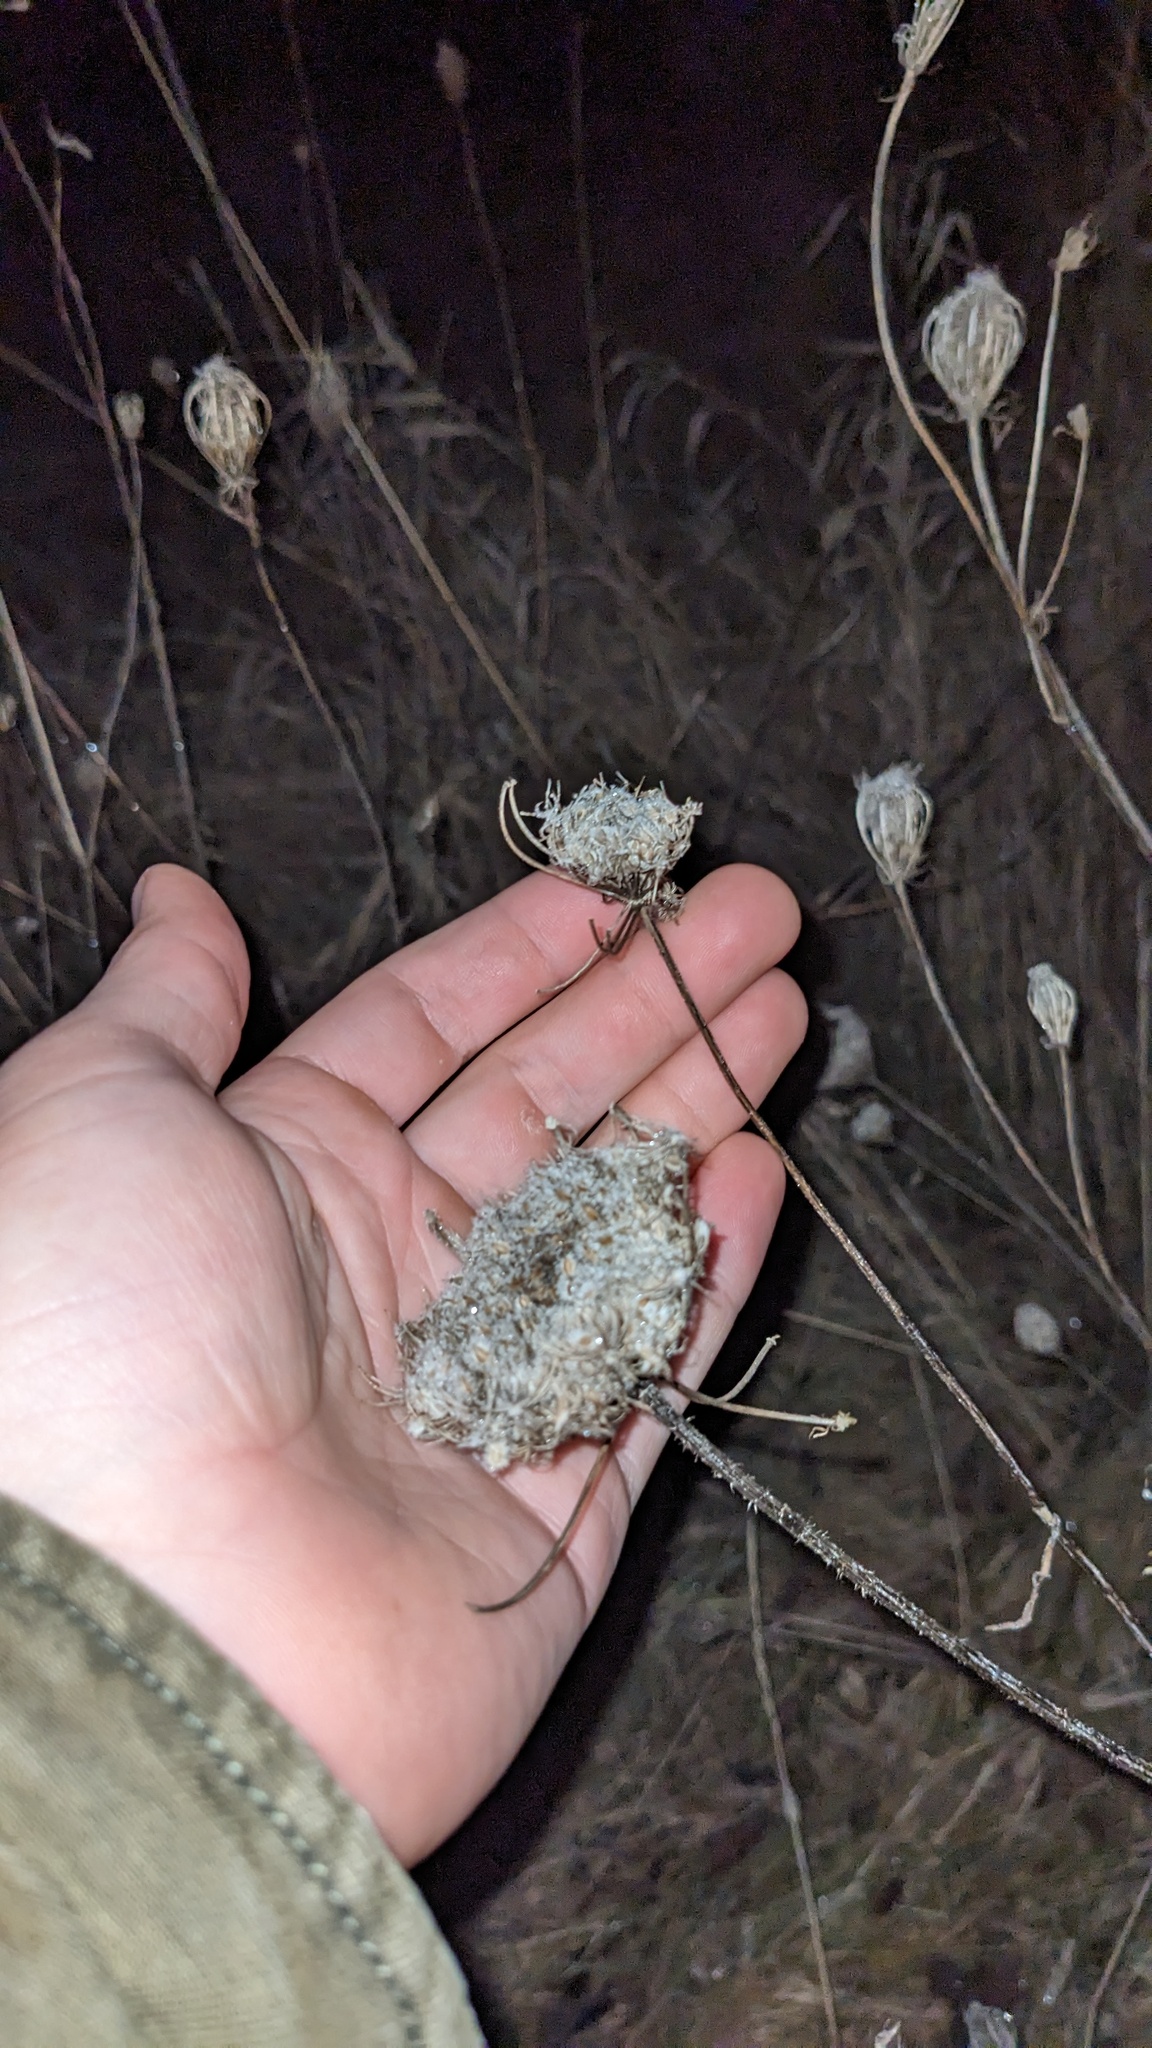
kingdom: Plantae
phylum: Tracheophyta
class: Magnoliopsida
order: Apiales
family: Apiaceae
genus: Daucus
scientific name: Daucus carota
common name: Wild carrot
